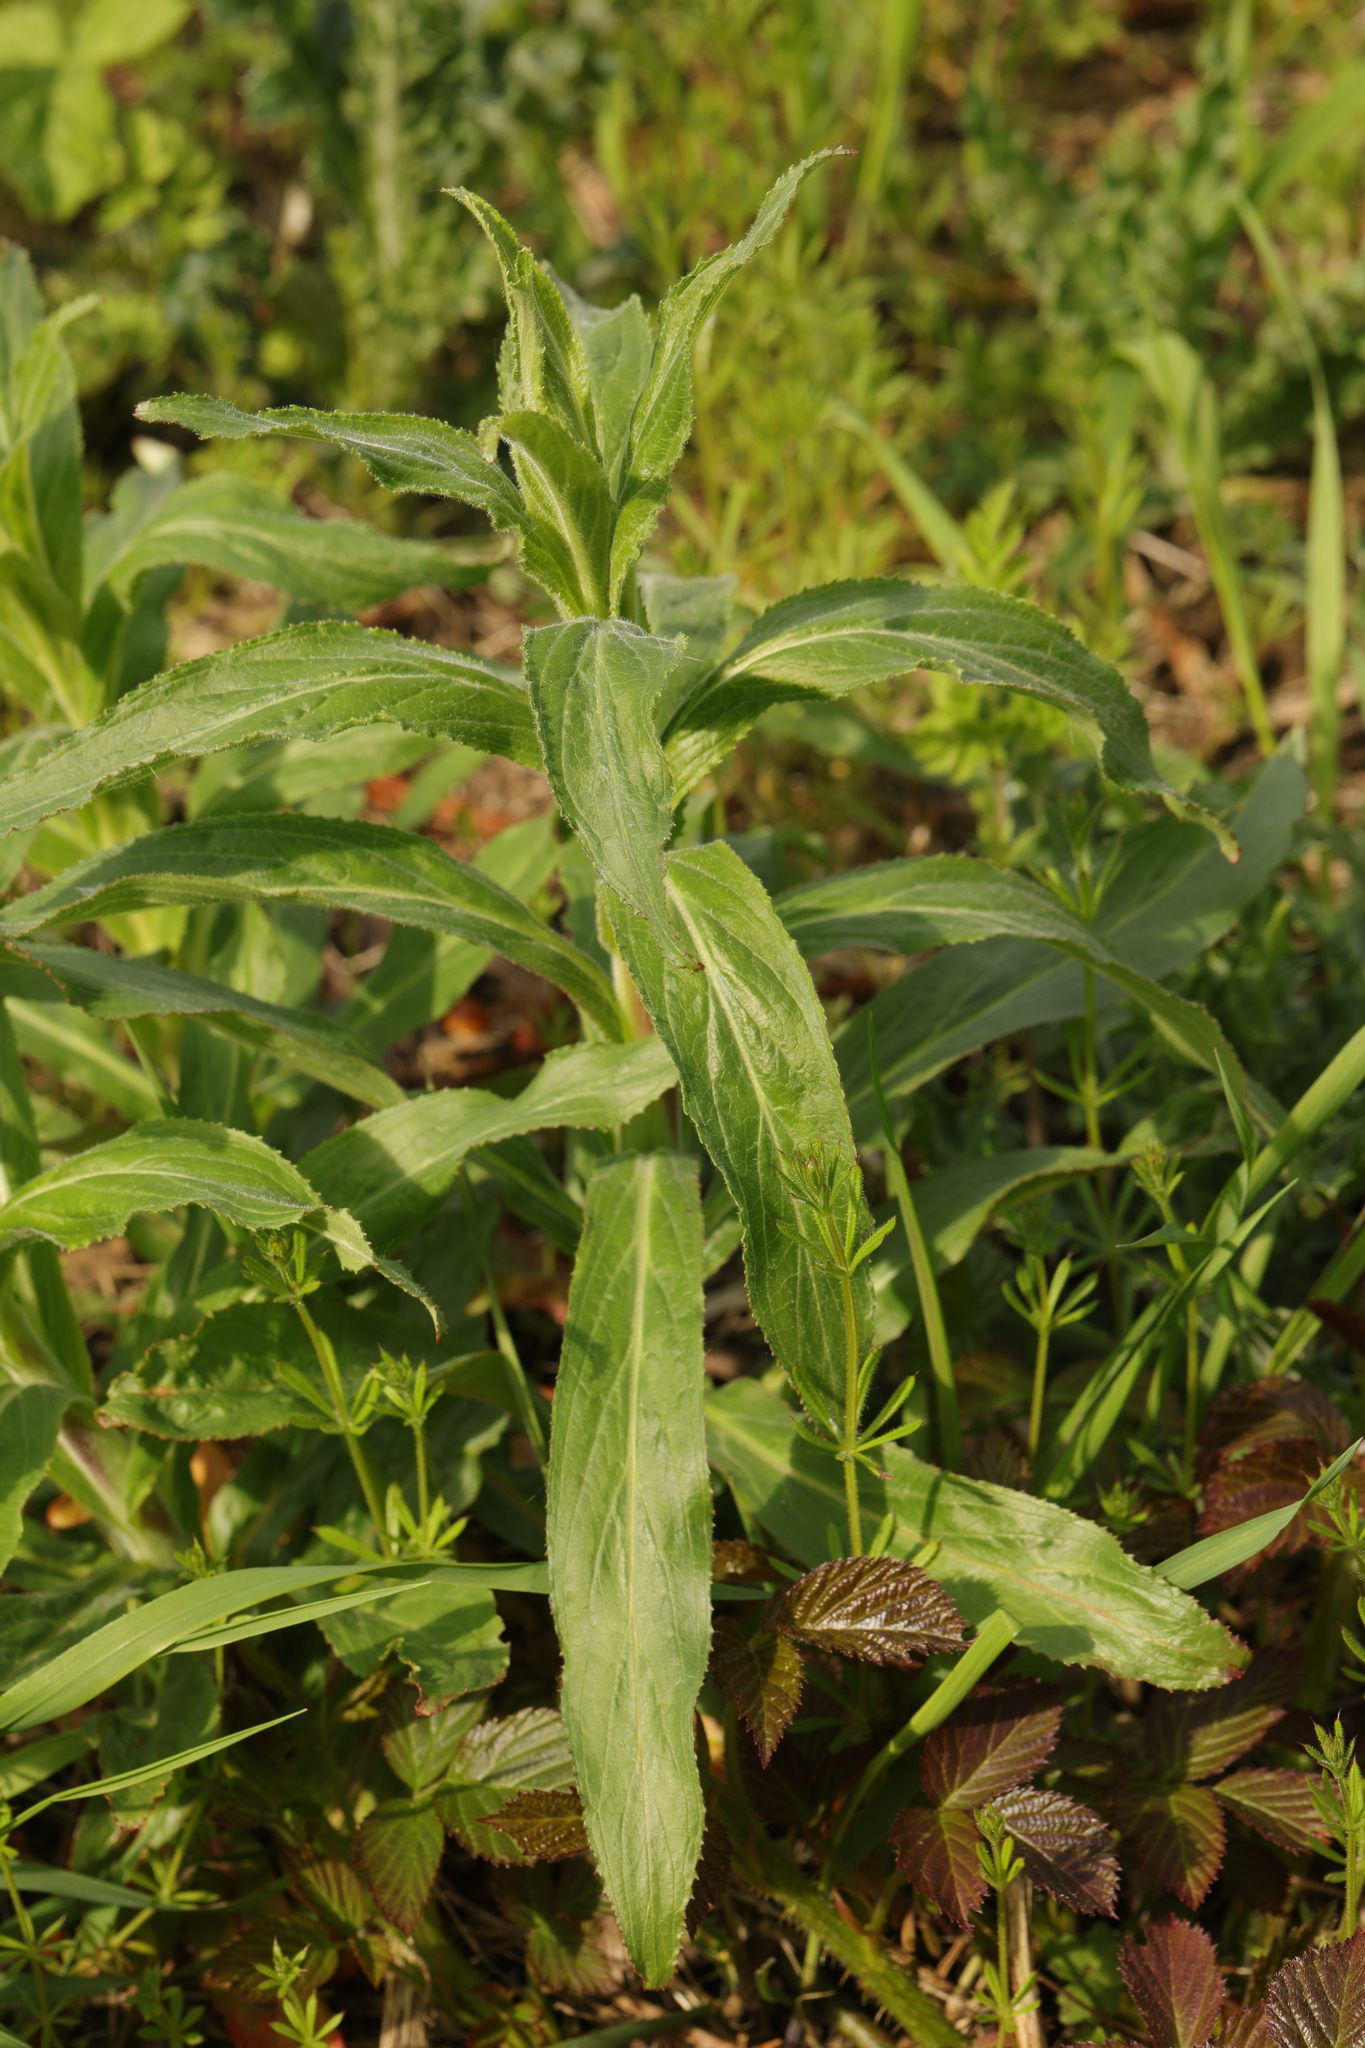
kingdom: Plantae
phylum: Tracheophyta
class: Magnoliopsida
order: Myrtales
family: Onagraceae
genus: Epilobium
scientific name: Epilobium hirsutum
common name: Great willowherb
